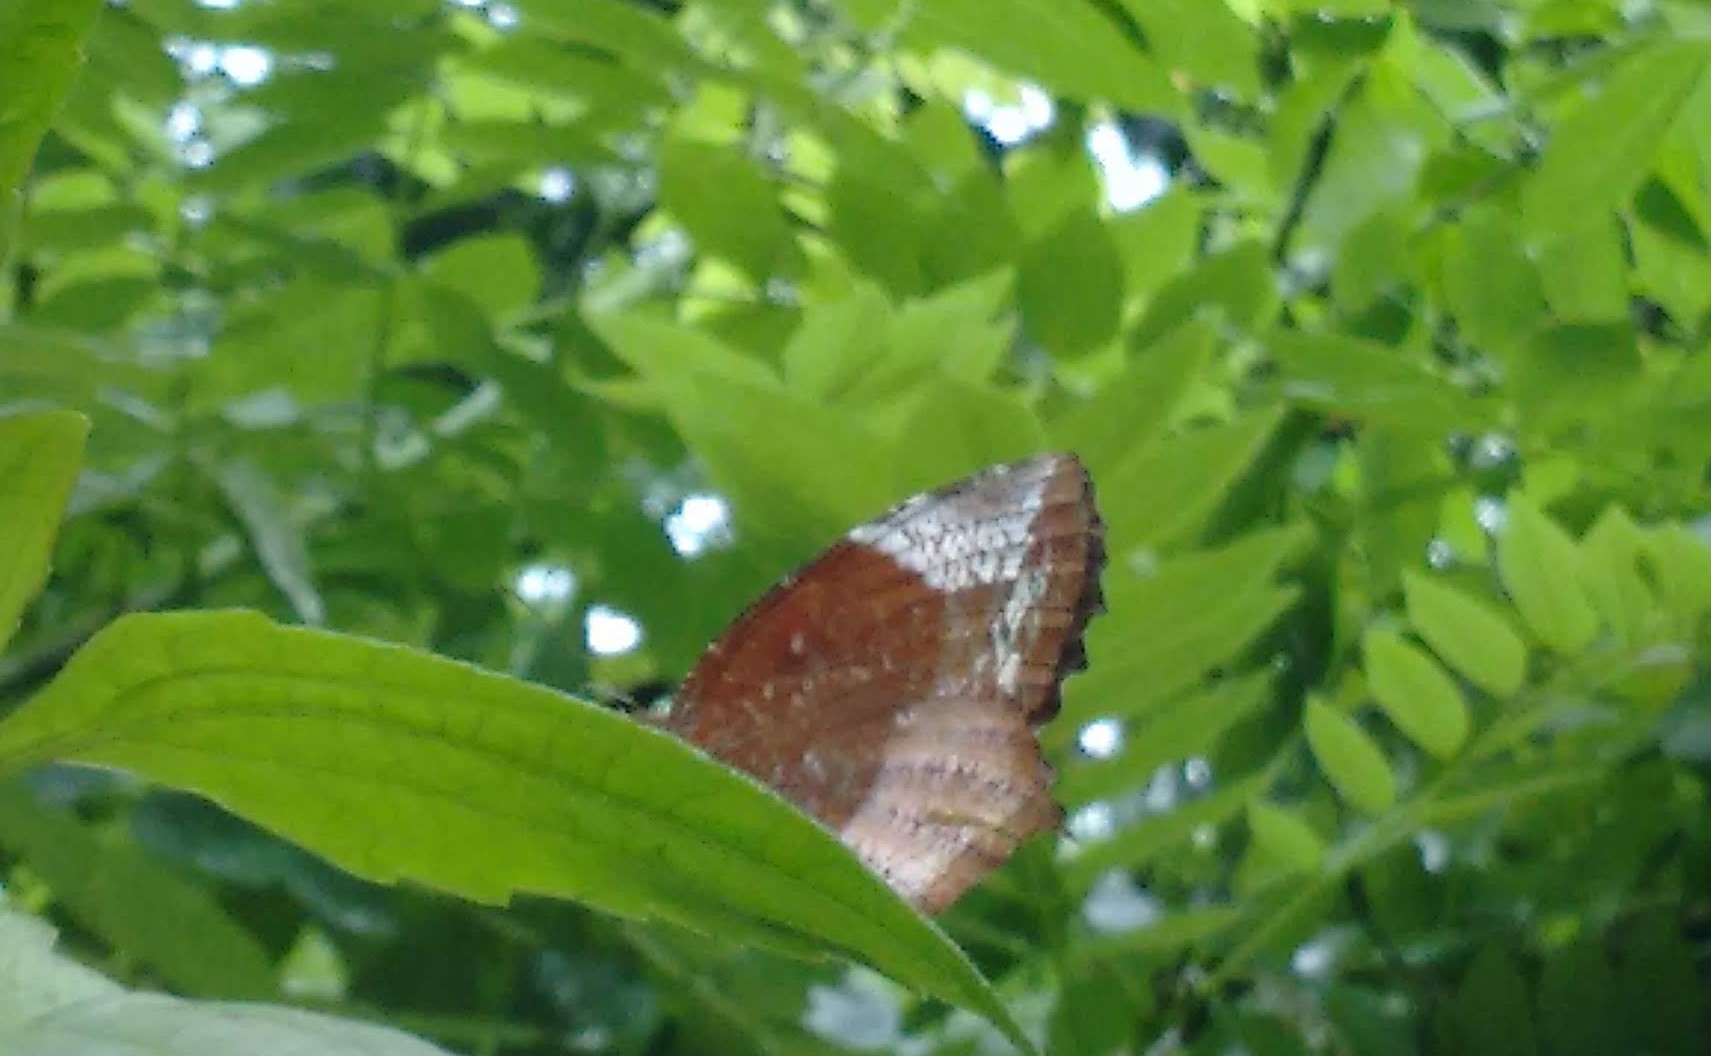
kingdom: Animalia
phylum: Arthropoda
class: Insecta
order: Lepidoptera
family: Nymphalidae
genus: Elymnias
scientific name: Elymnias caudata
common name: Tailed palmfly
